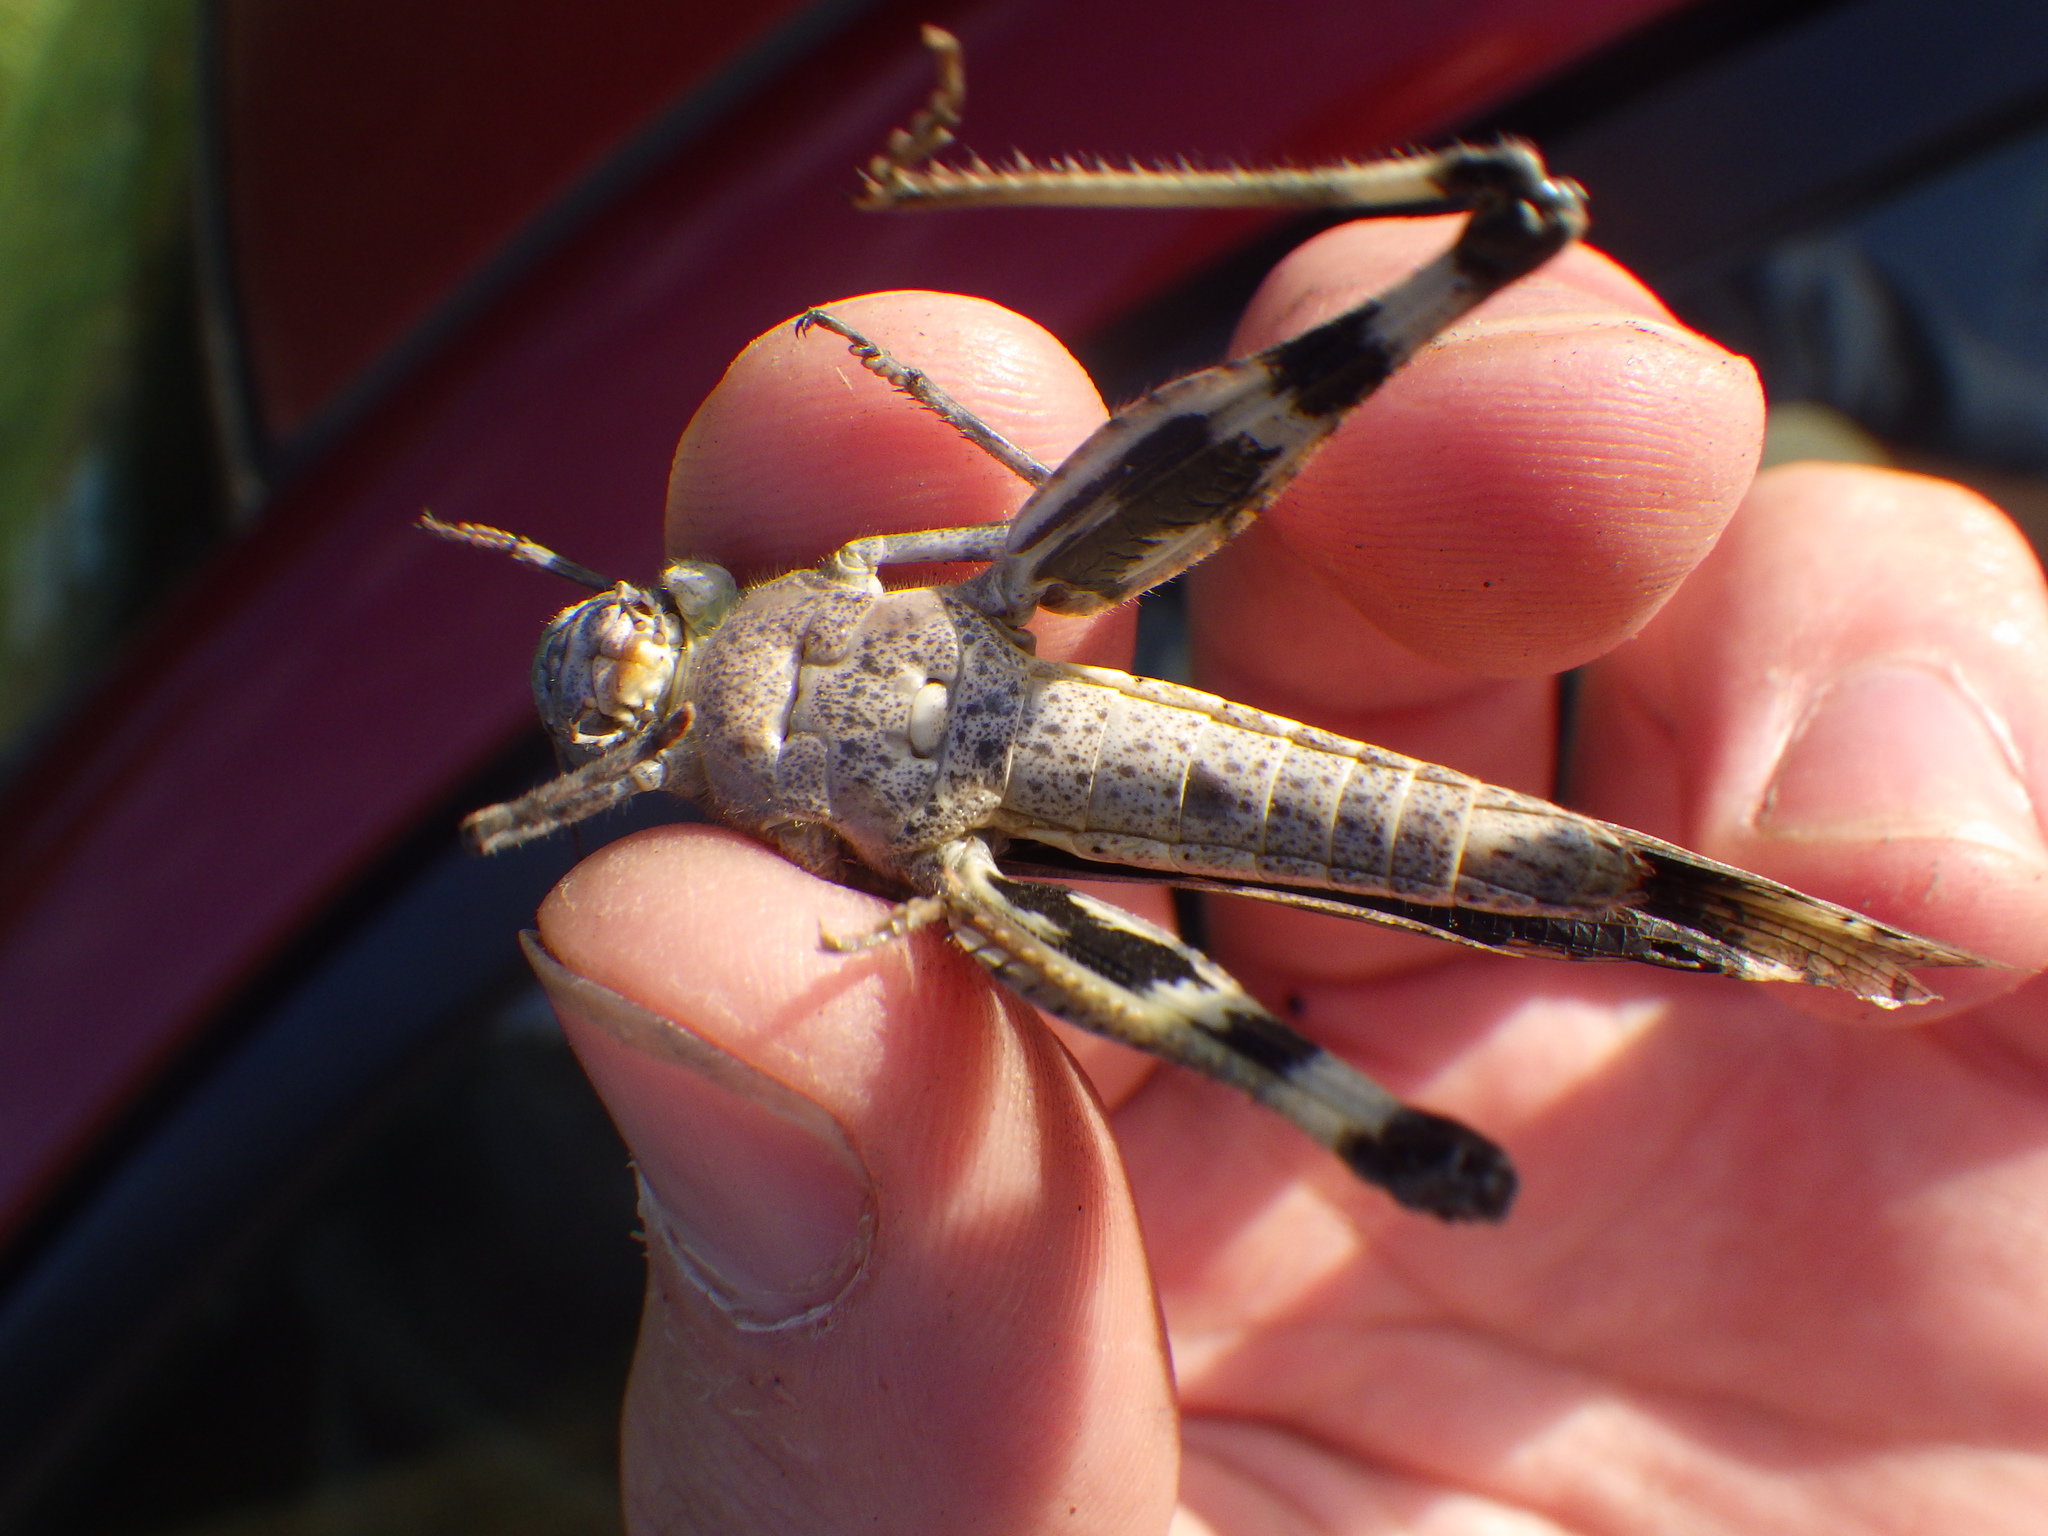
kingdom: Animalia
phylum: Arthropoda
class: Insecta
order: Orthoptera
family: Acrididae
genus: Dissosteira
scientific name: Dissosteira carolina
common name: Carolina grasshopper
